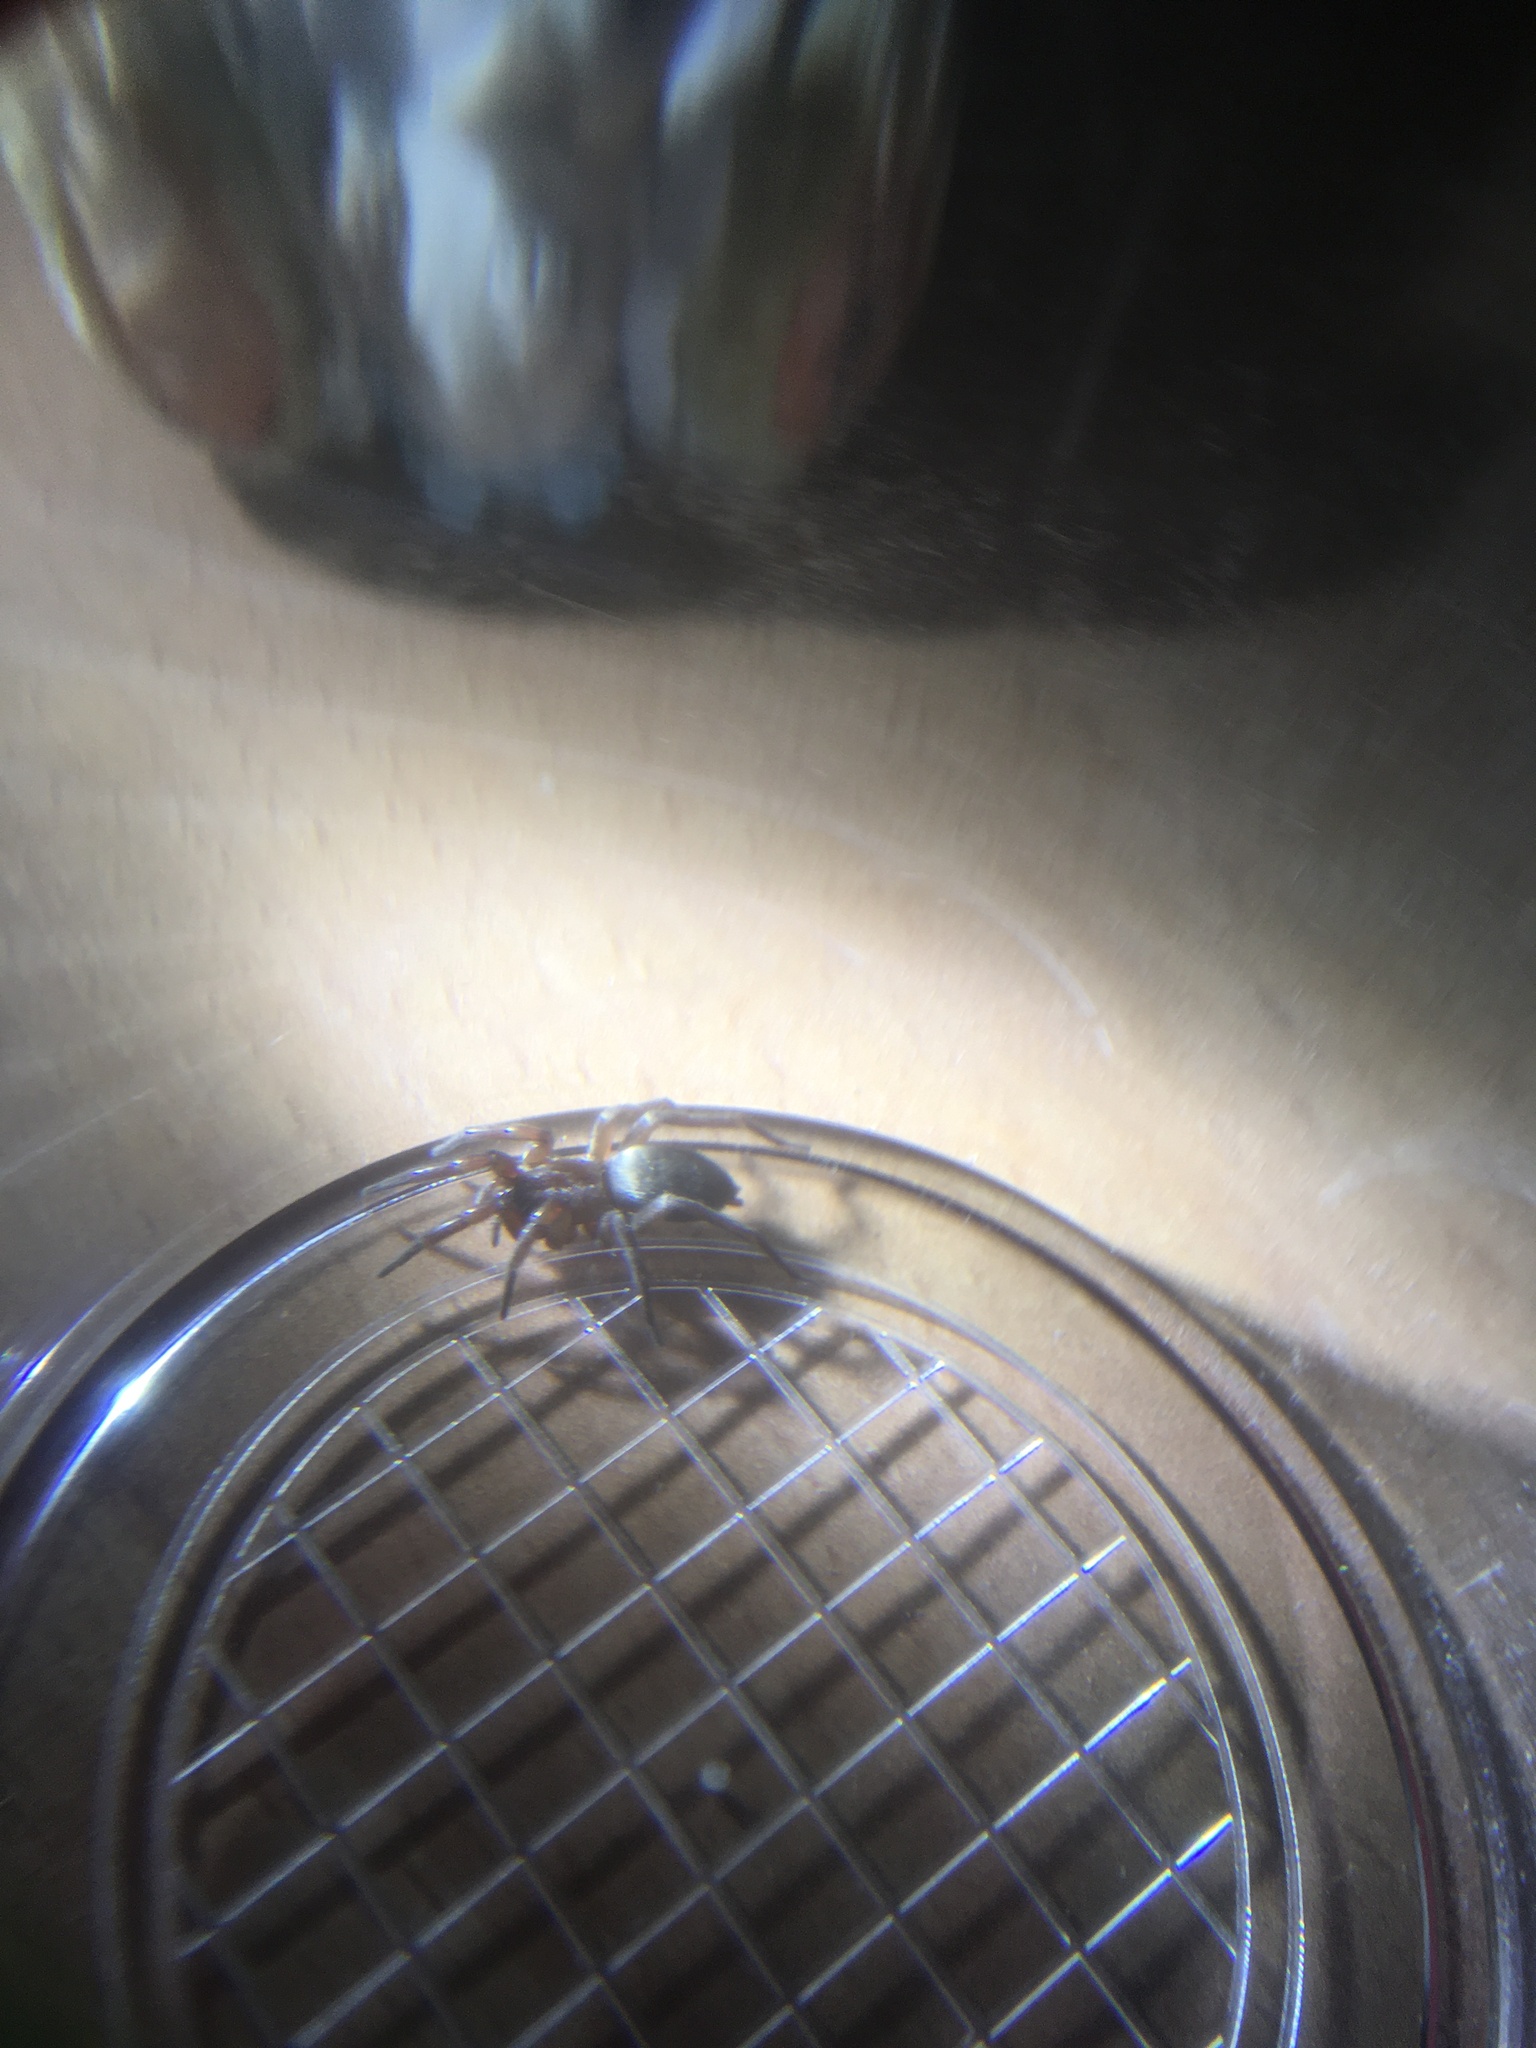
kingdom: Animalia
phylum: Arthropoda
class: Arachnida
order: Araneae
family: Gnaphosidae
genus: Scotophaeus
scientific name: Scotophaeus blackwalli
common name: Mouse spider
